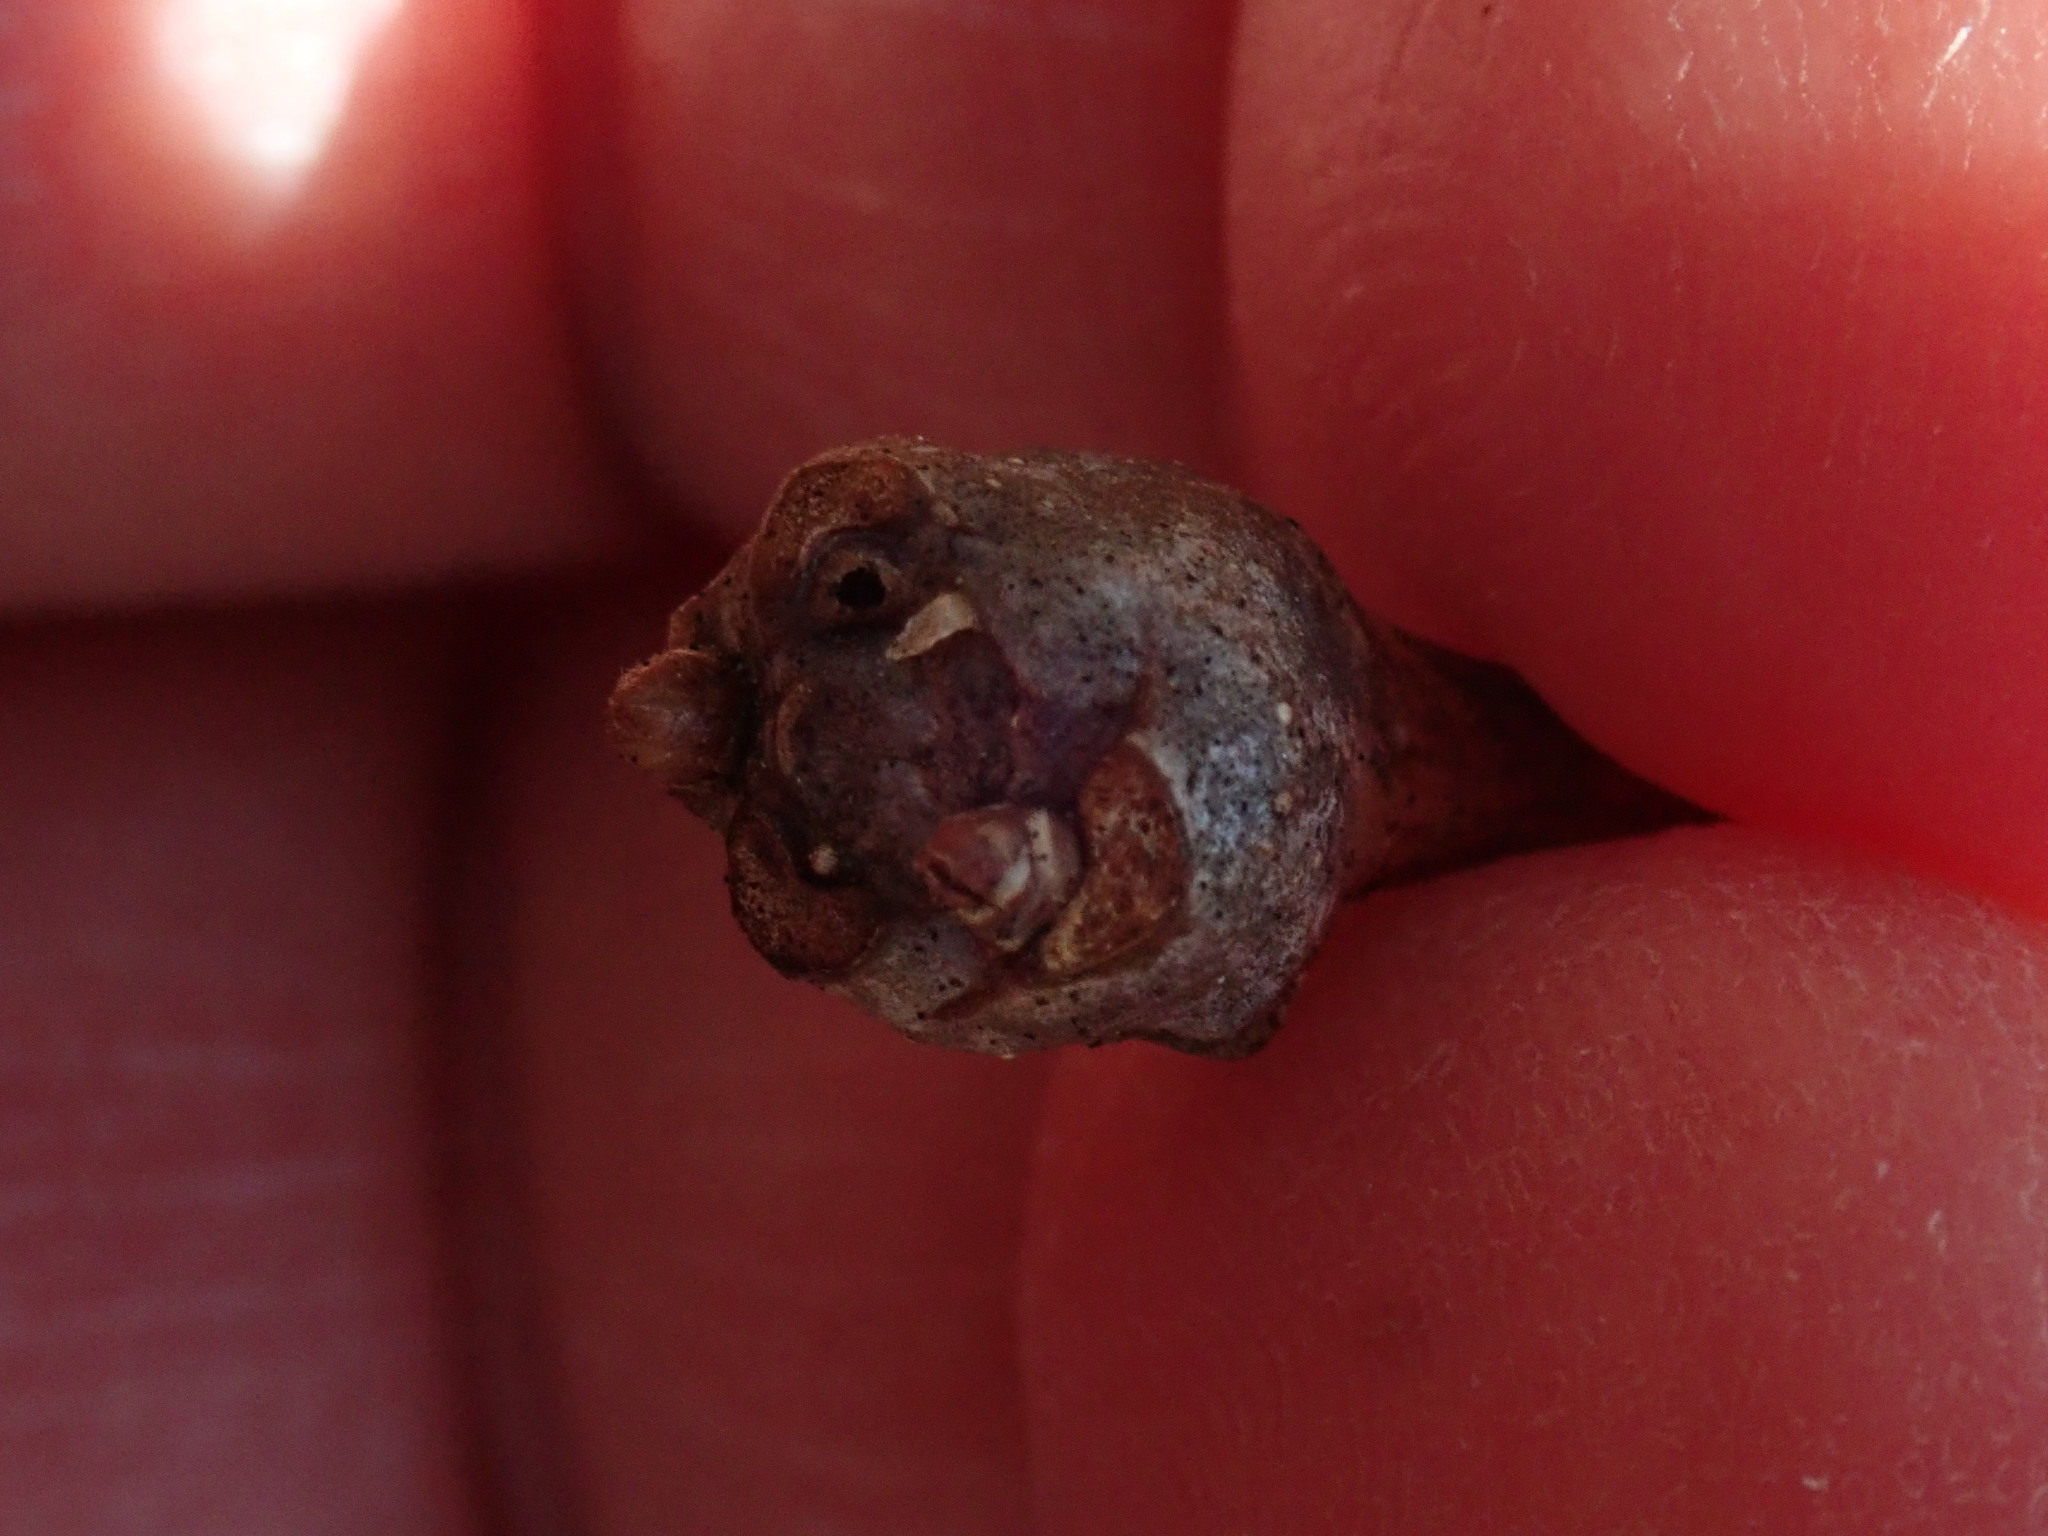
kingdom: Animalia
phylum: Arthropoda
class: Insecta
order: Hymenoptera
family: Cynipidae
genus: Callirhytis
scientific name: Callirhytis clavula
